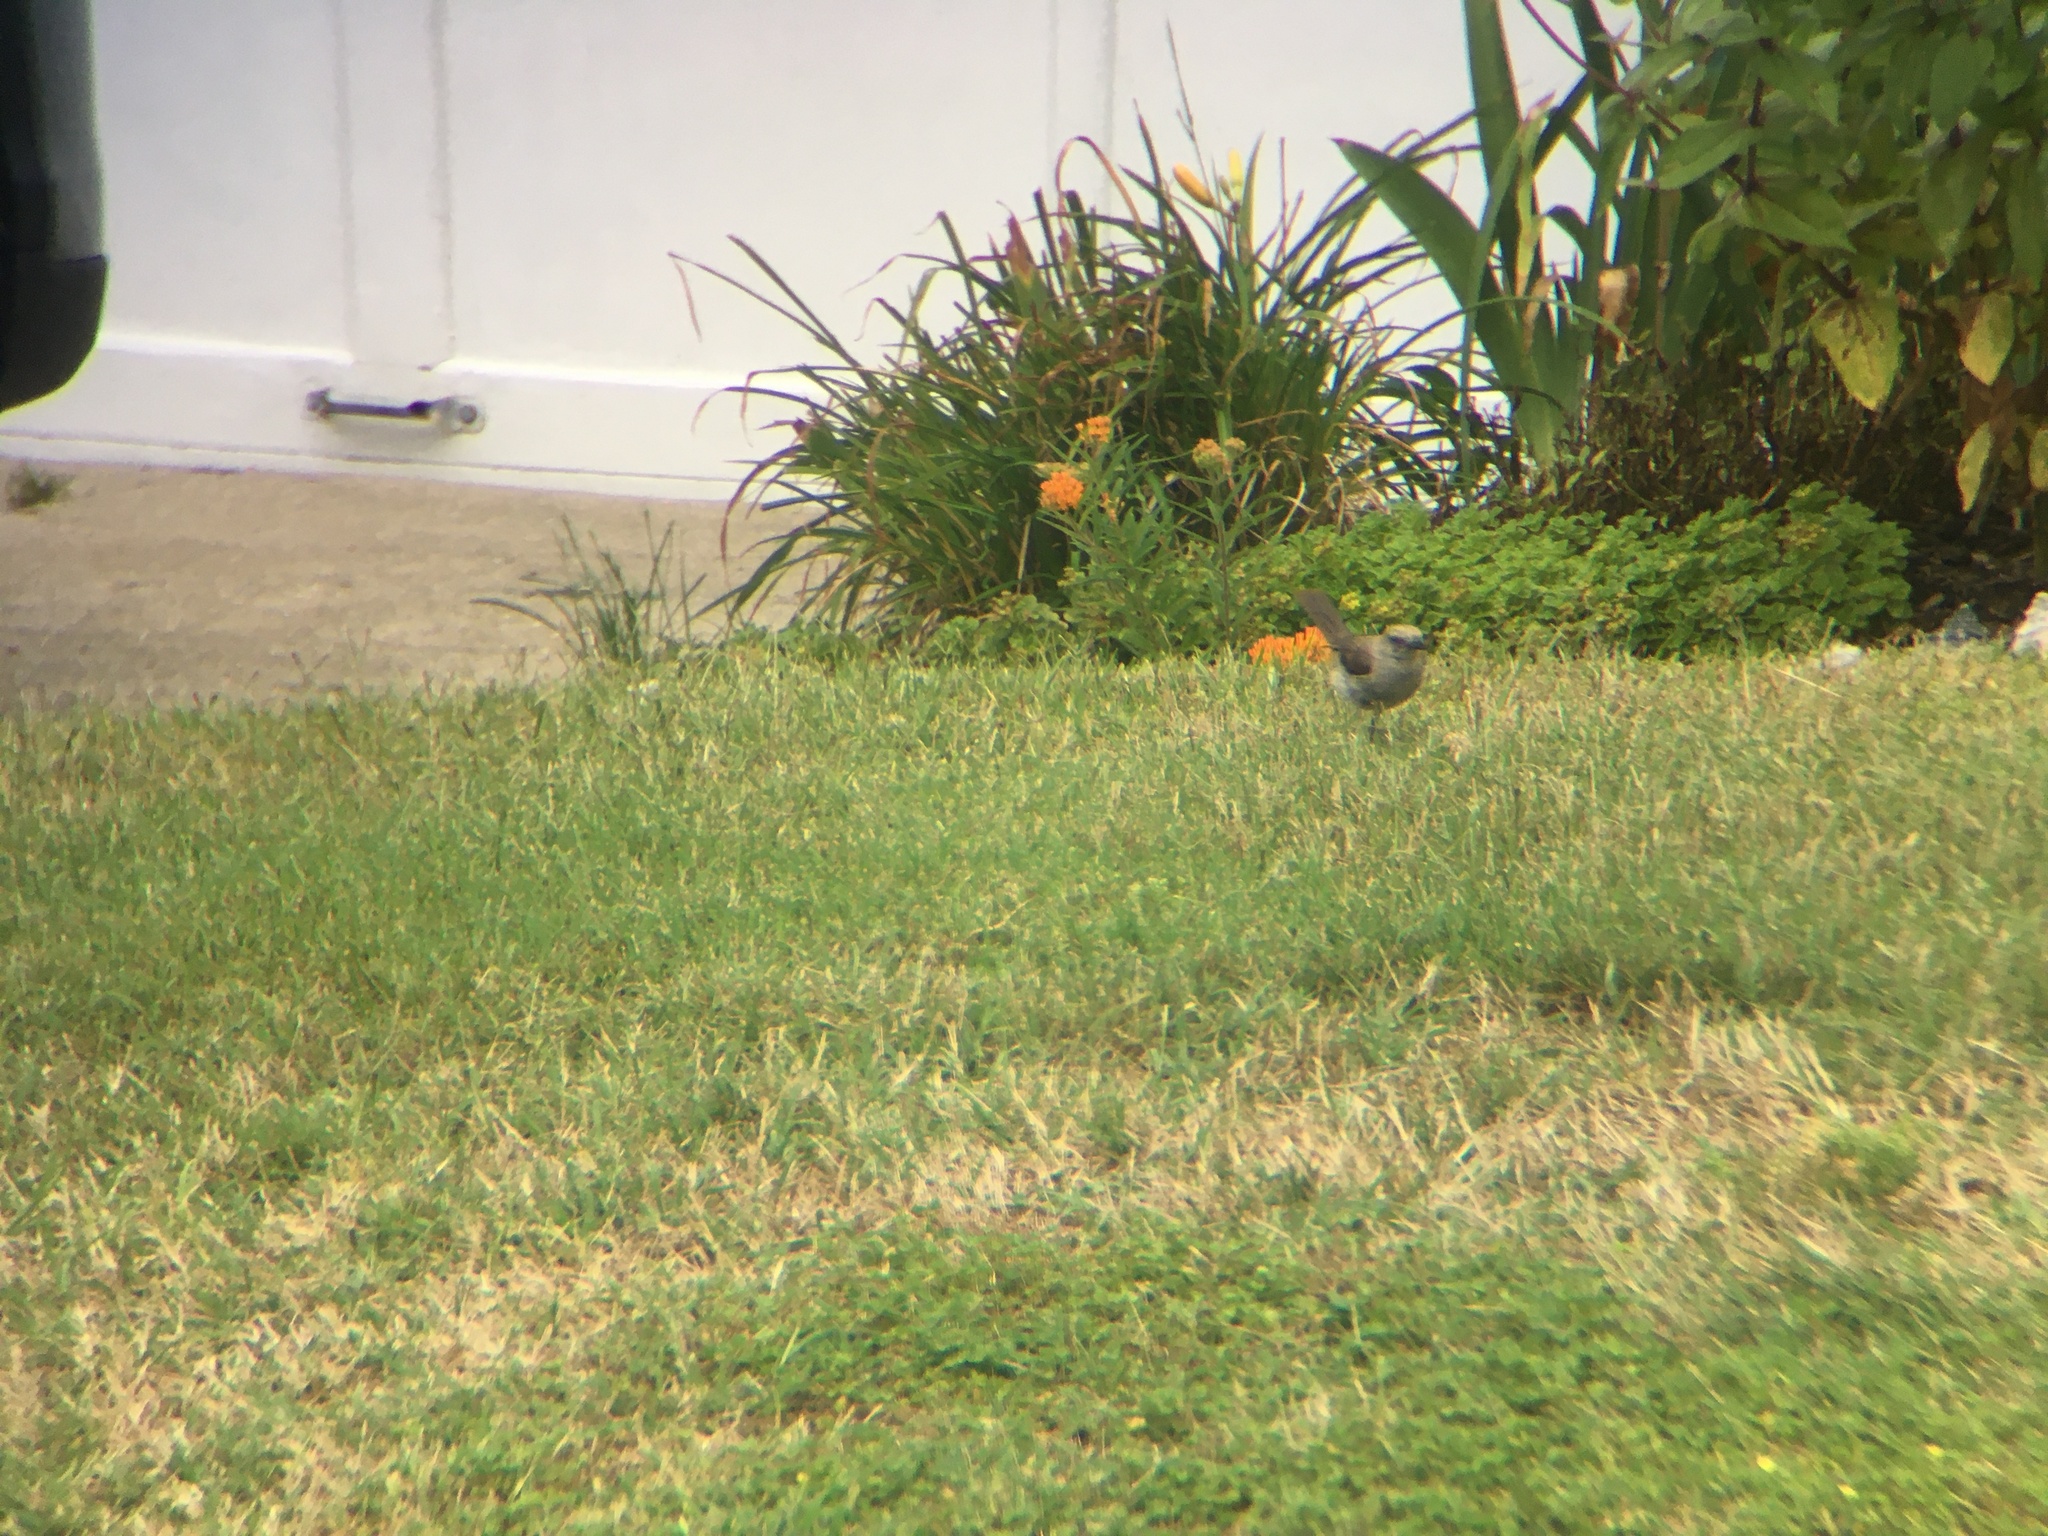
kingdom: Animalia
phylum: Chordata
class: Aves
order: Passeriformes
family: Mimidae
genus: Mimus
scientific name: Mimus polyglottos
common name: Northern mockingbird
